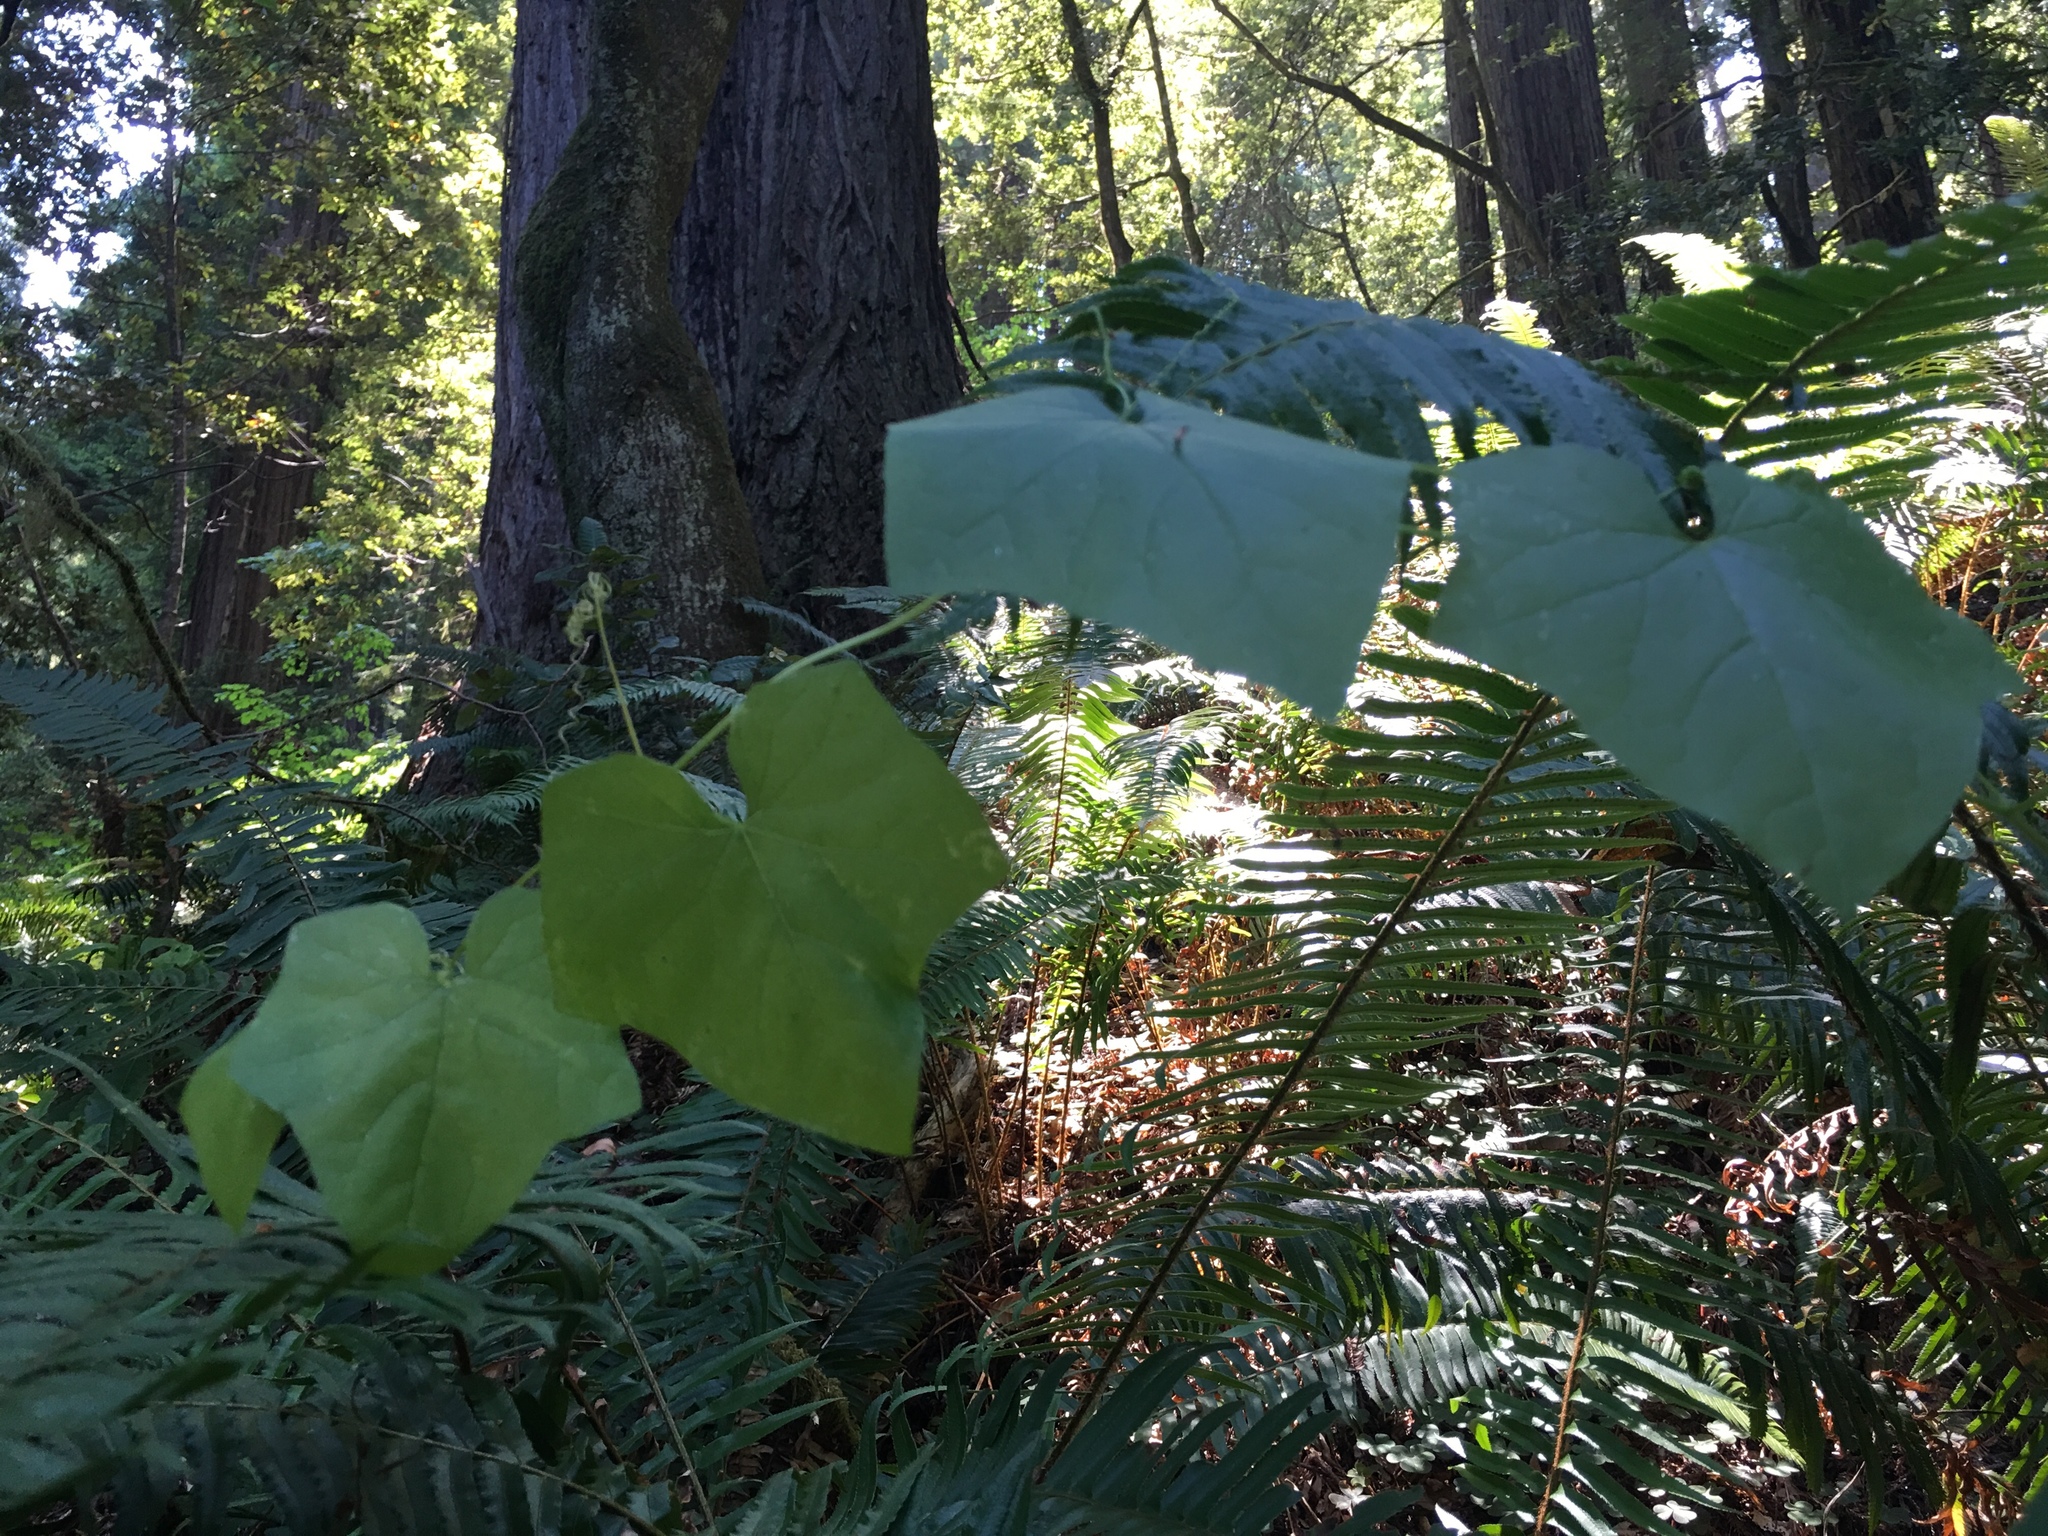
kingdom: Plantae
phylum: Tracheophyta
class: Magnoliopsida
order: Cucurbitales
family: Cucurbitaceae
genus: Marah
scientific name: Marah oregana
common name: Coastal manroot
